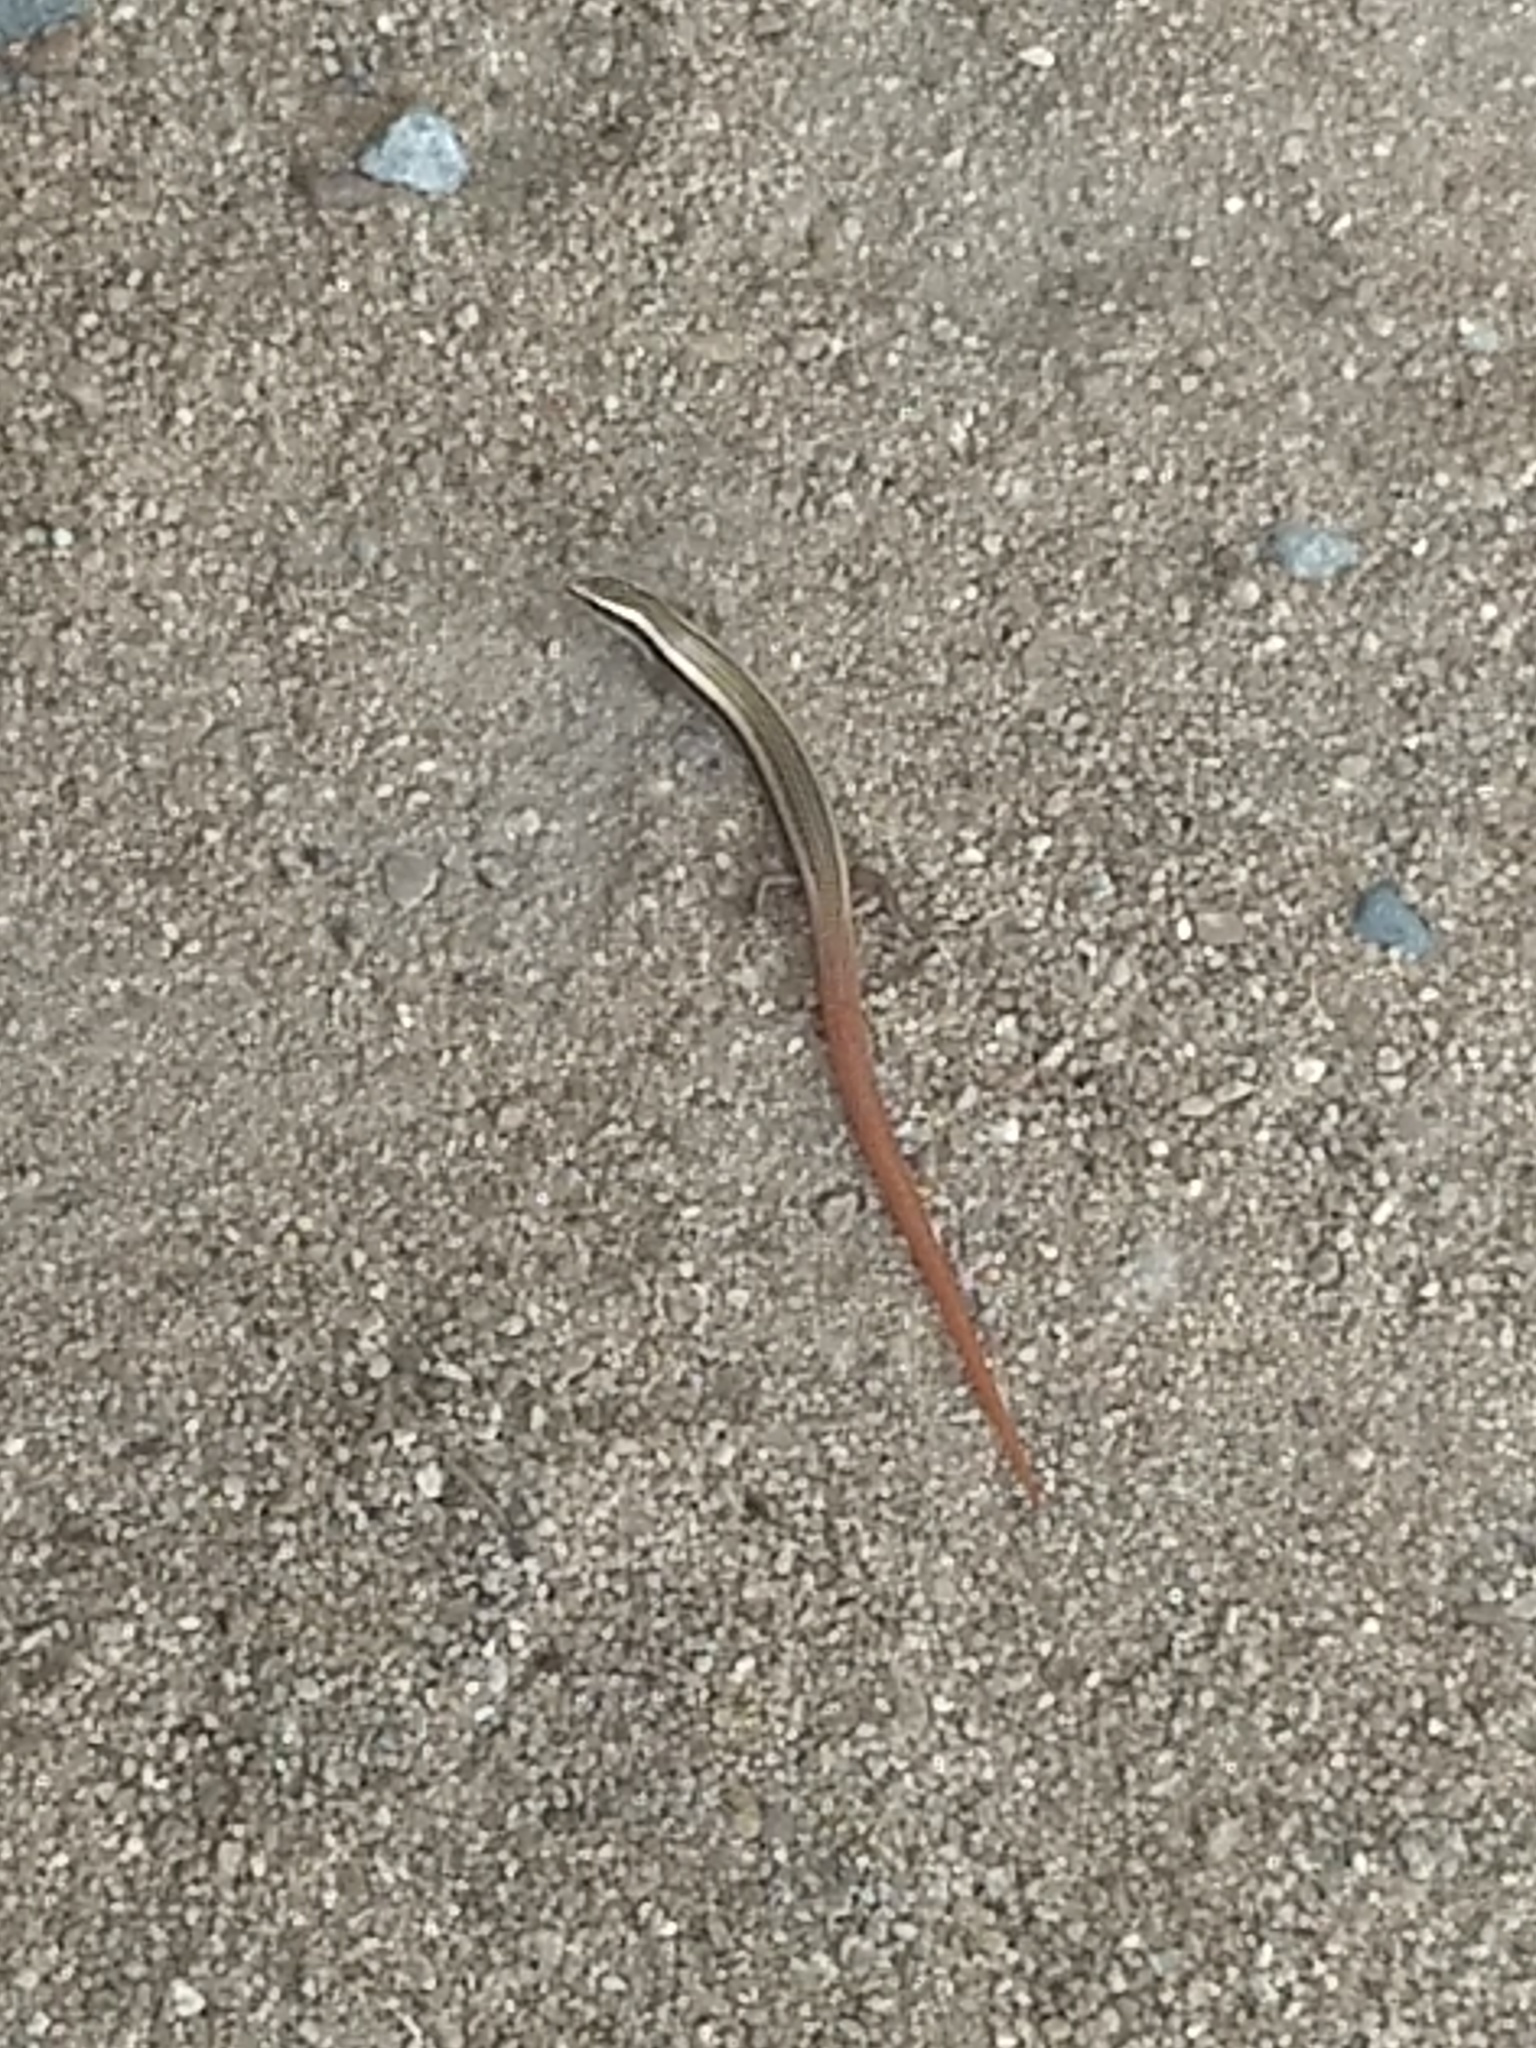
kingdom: Animalia
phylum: Chordata
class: Squamata
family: Scincidae
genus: Riopa
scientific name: Riopa punctata
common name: Common dotted garden skink
